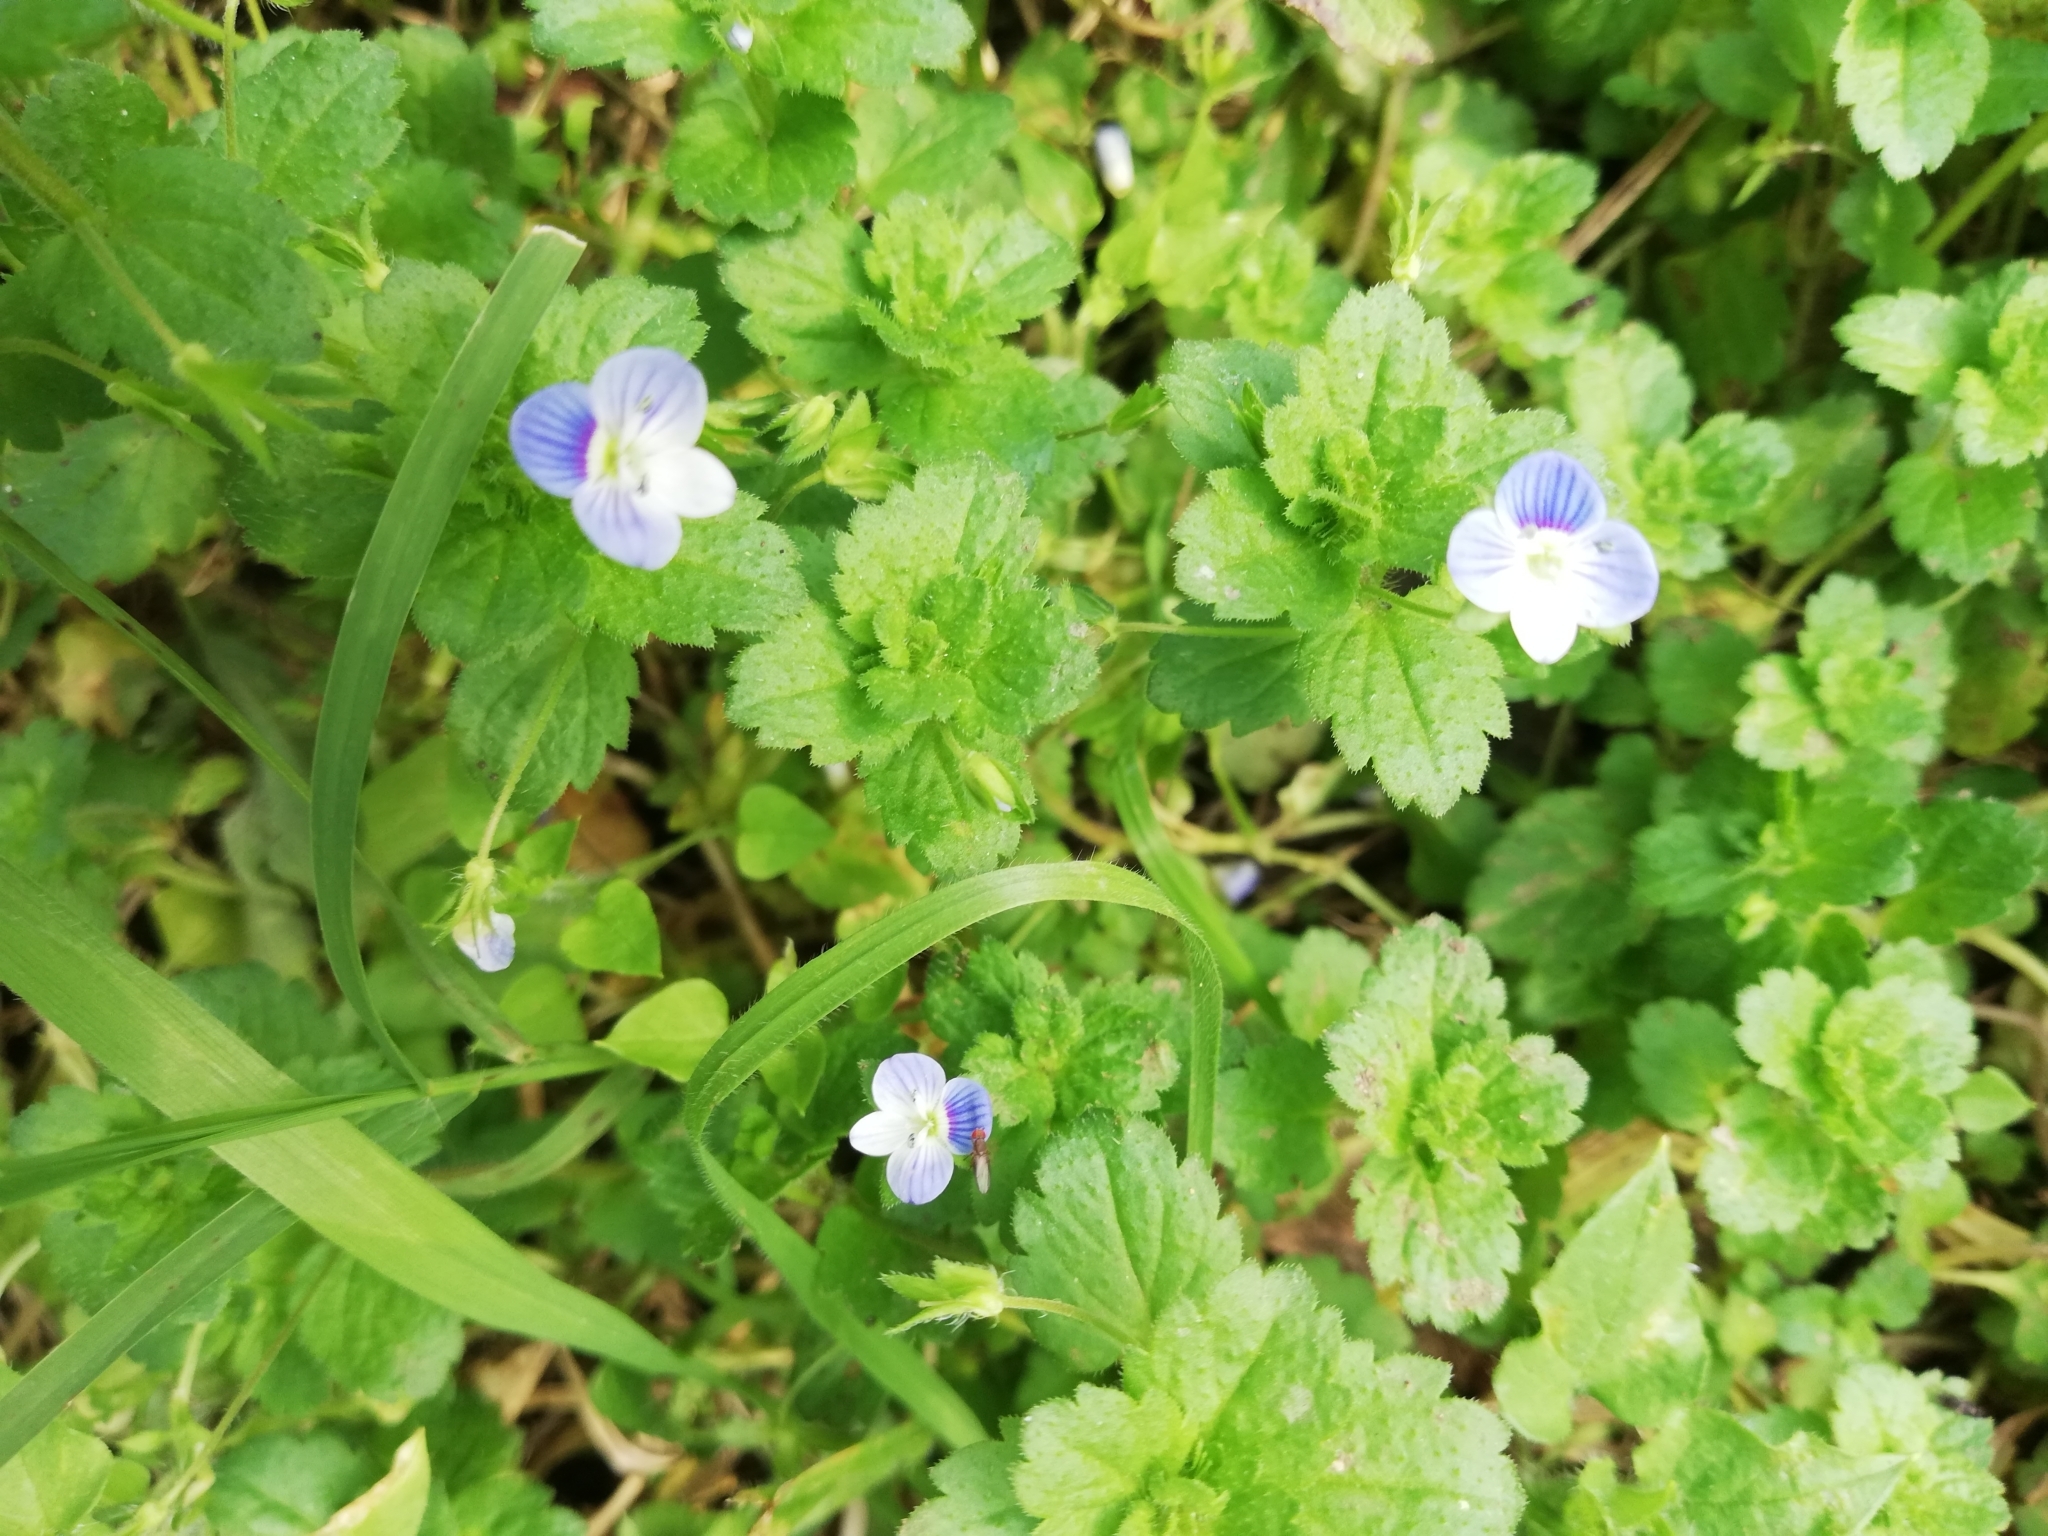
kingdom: Plantae
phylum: Tracheophyta
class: Magnoliopsida
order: Lamiales
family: Plantaginaceae
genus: Veronica
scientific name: Veronica persica
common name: Common field-speedwell
